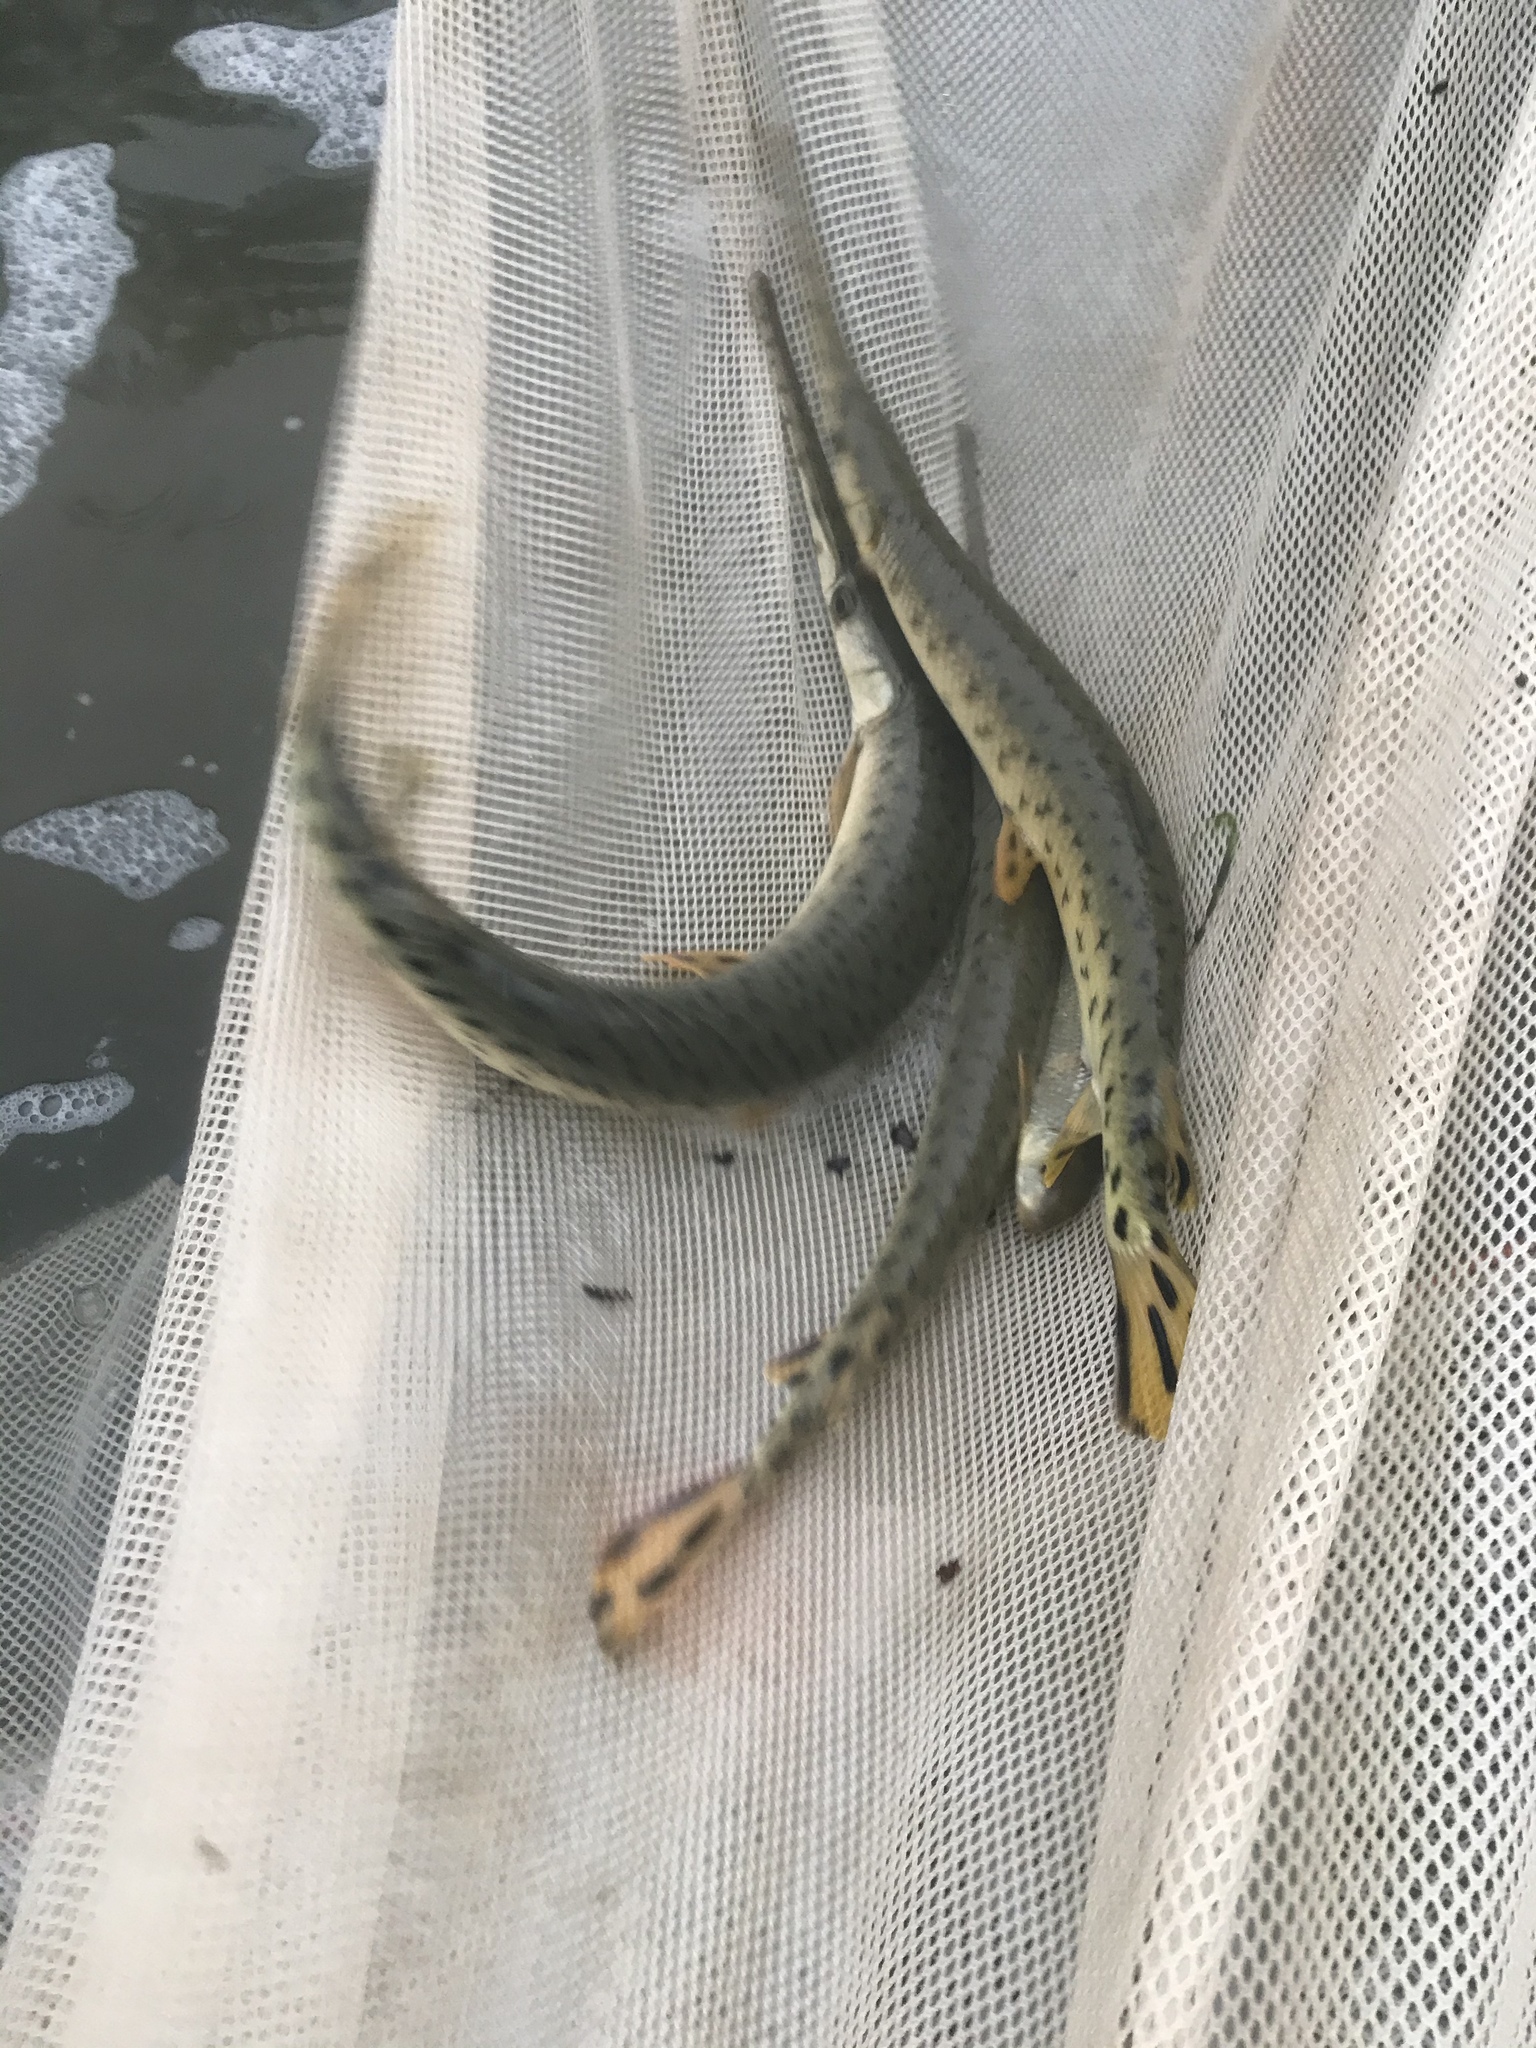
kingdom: Animalia
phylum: Chordata
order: Lepisosteiformes
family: Lepisosteidae
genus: Lepisosteus
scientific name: Lepisosteus osseus
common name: Longnose gar
